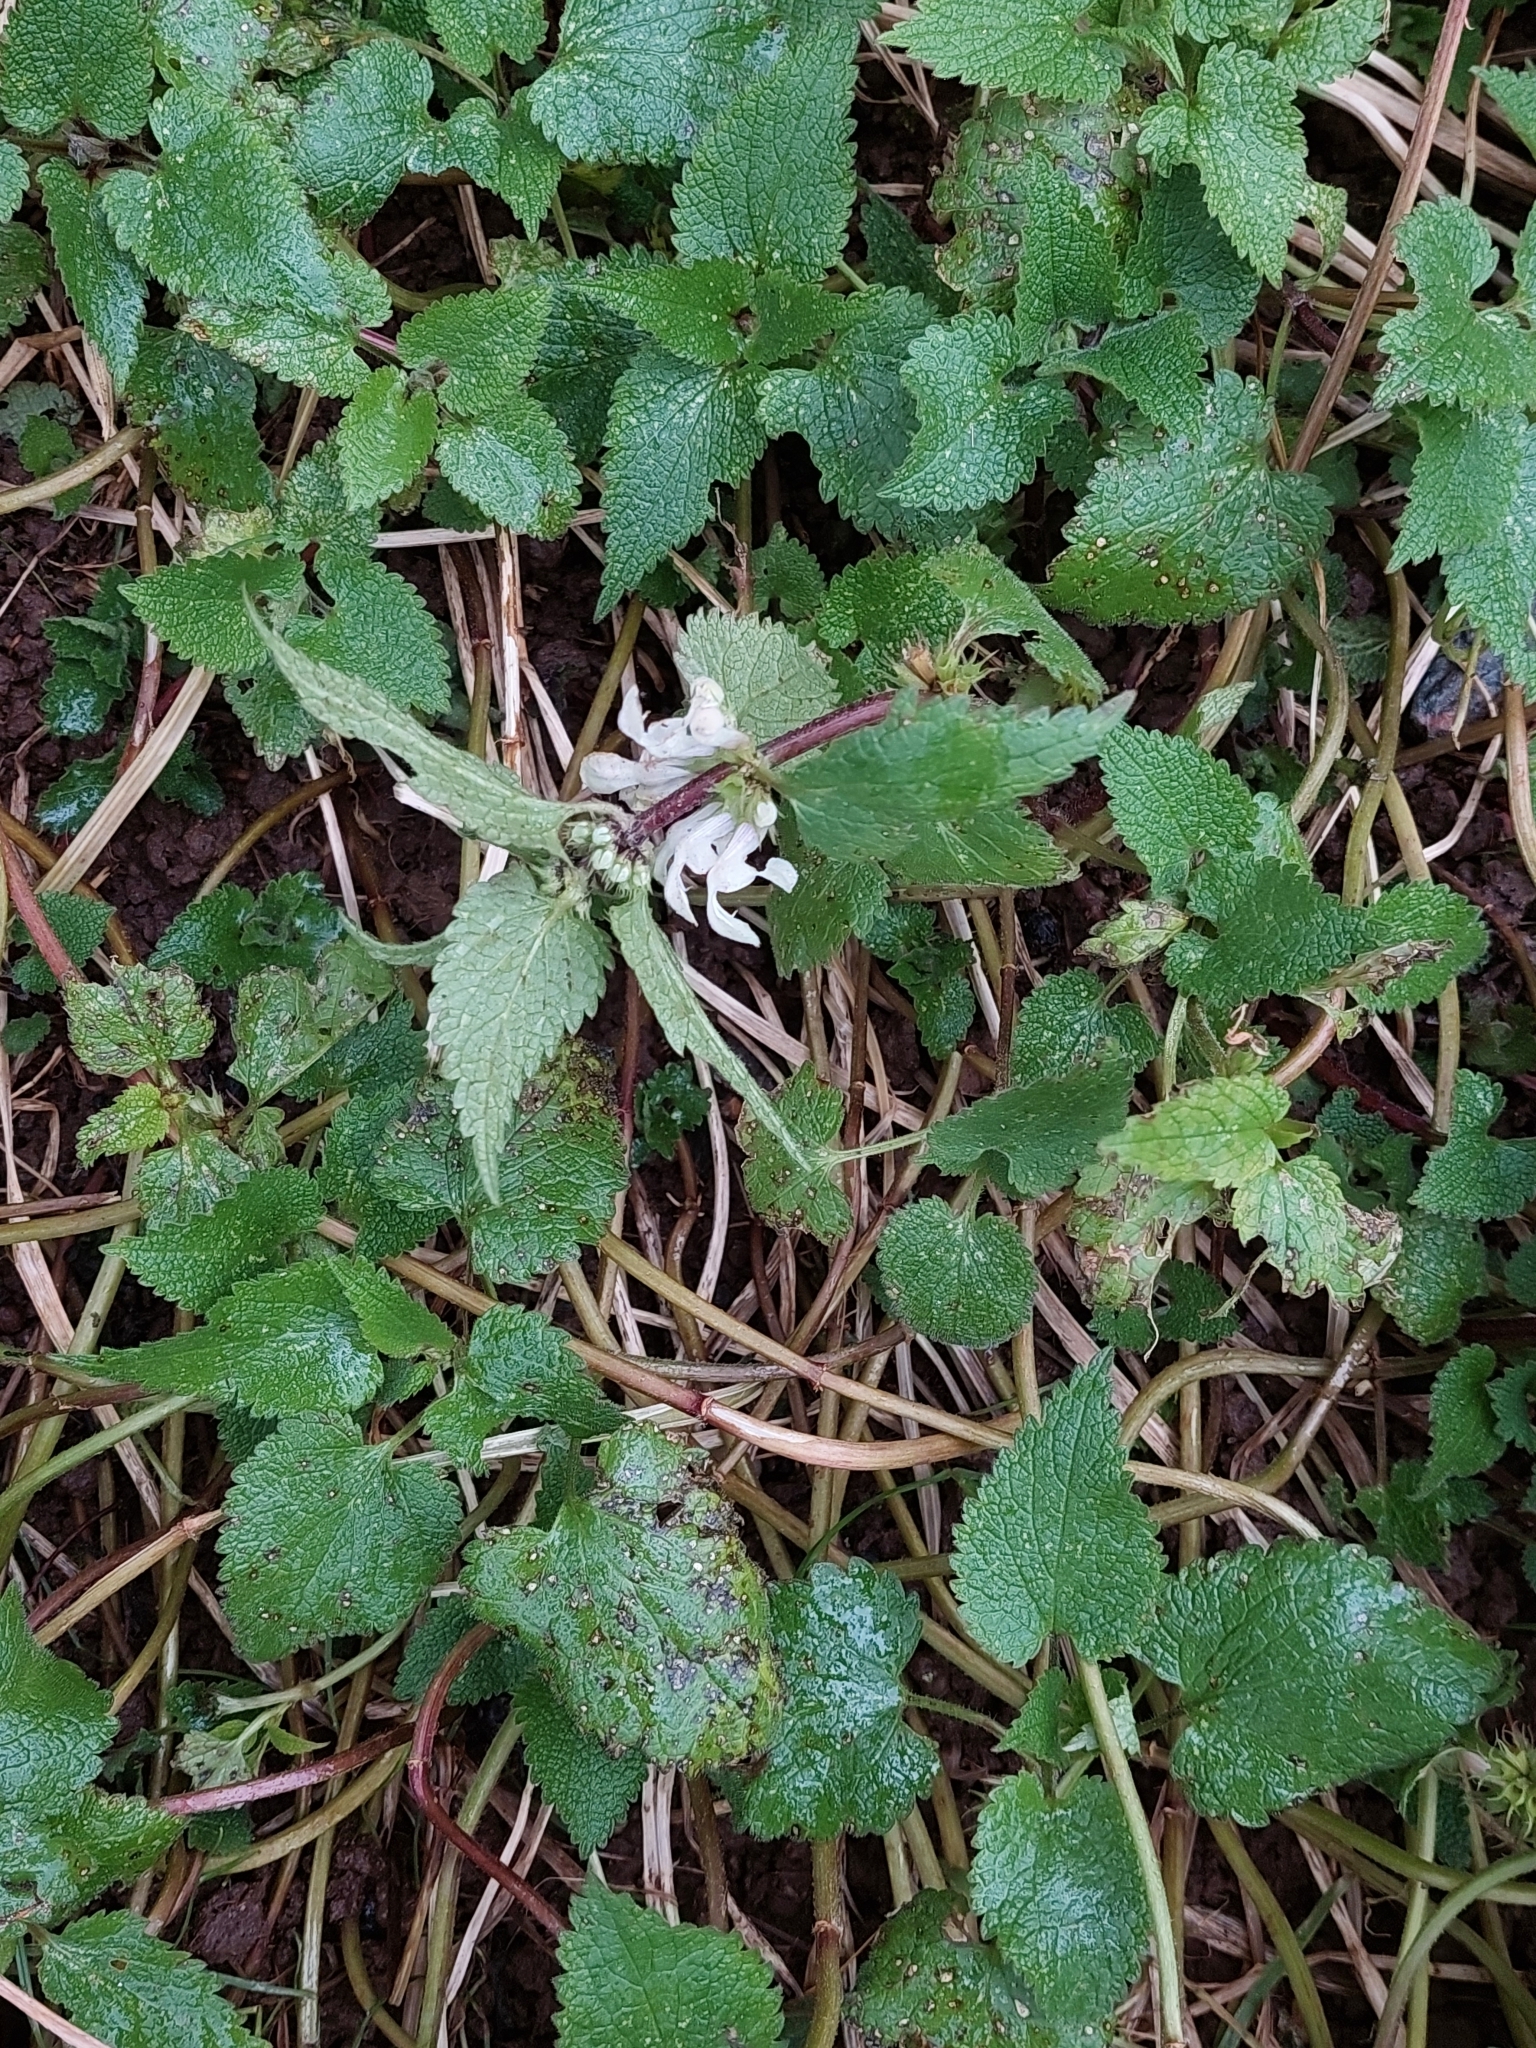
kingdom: Plantae
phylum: Tracheophyta
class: Magnoliopsida
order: Lamiales
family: Lamiaceae
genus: Lamium
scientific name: Lamium album
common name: White dead-nettle
